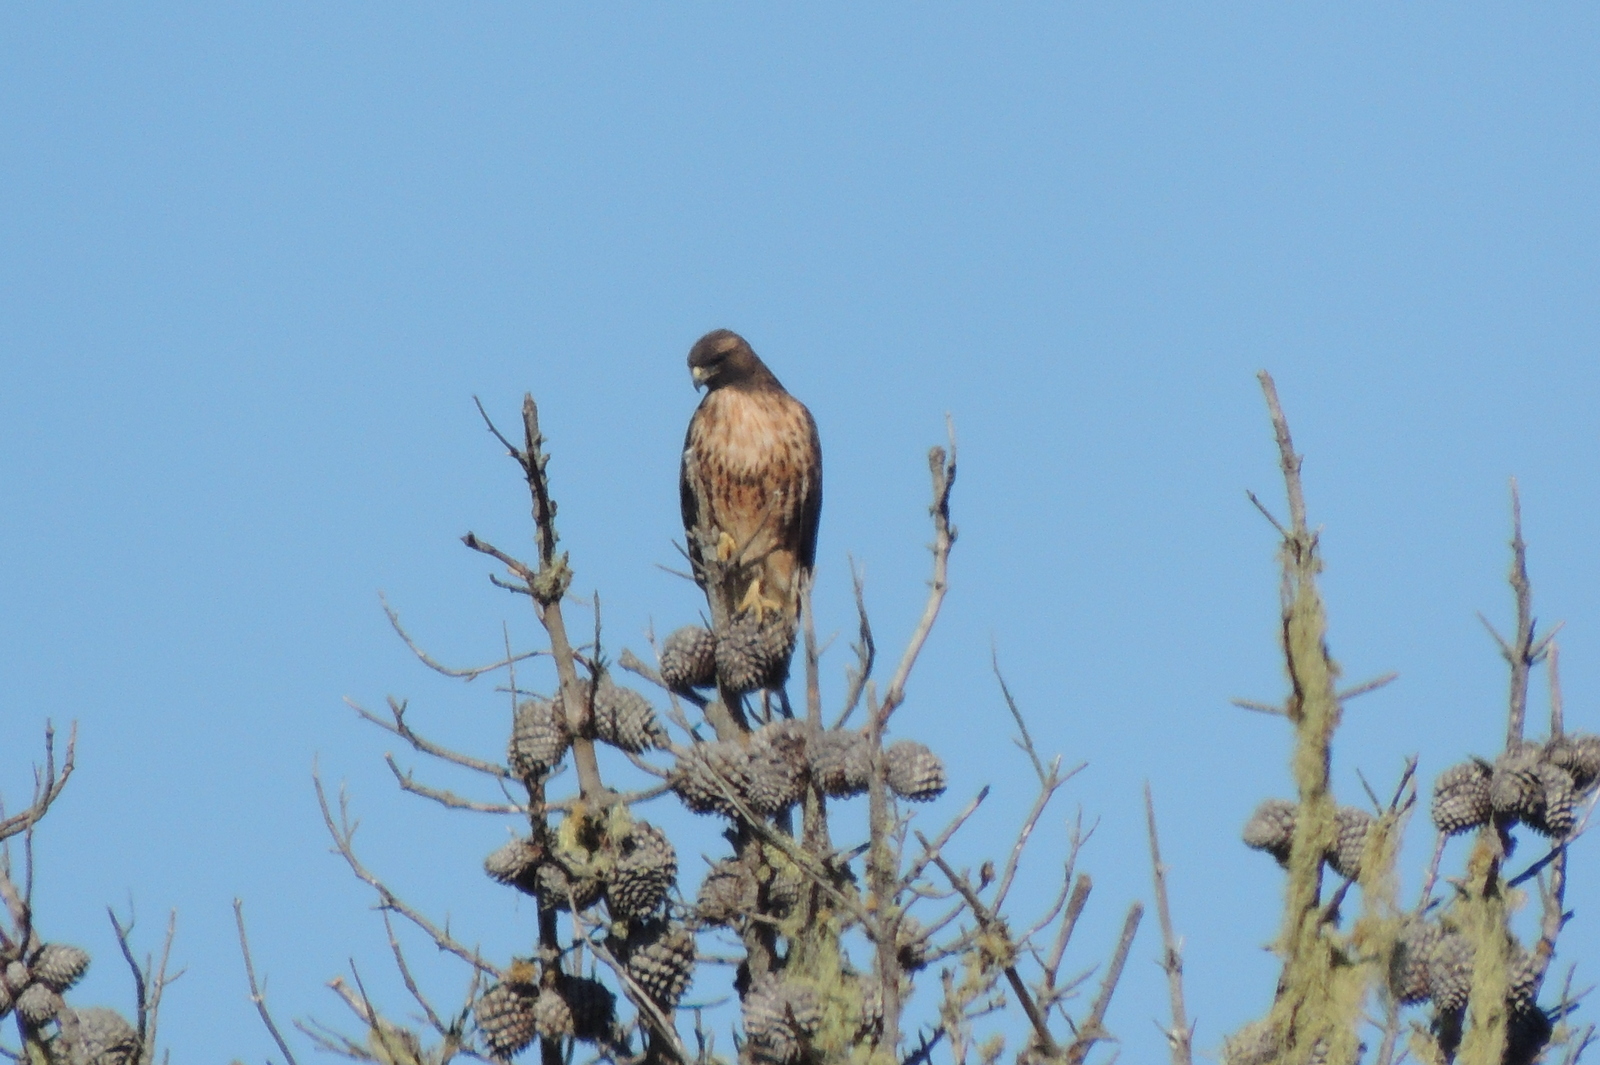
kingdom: Animalia
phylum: Chordata
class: Aves
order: Accipitriformes
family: Accipitridae
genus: Buteo
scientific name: Buteo jamaicensis
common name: Red-tailed hawk
